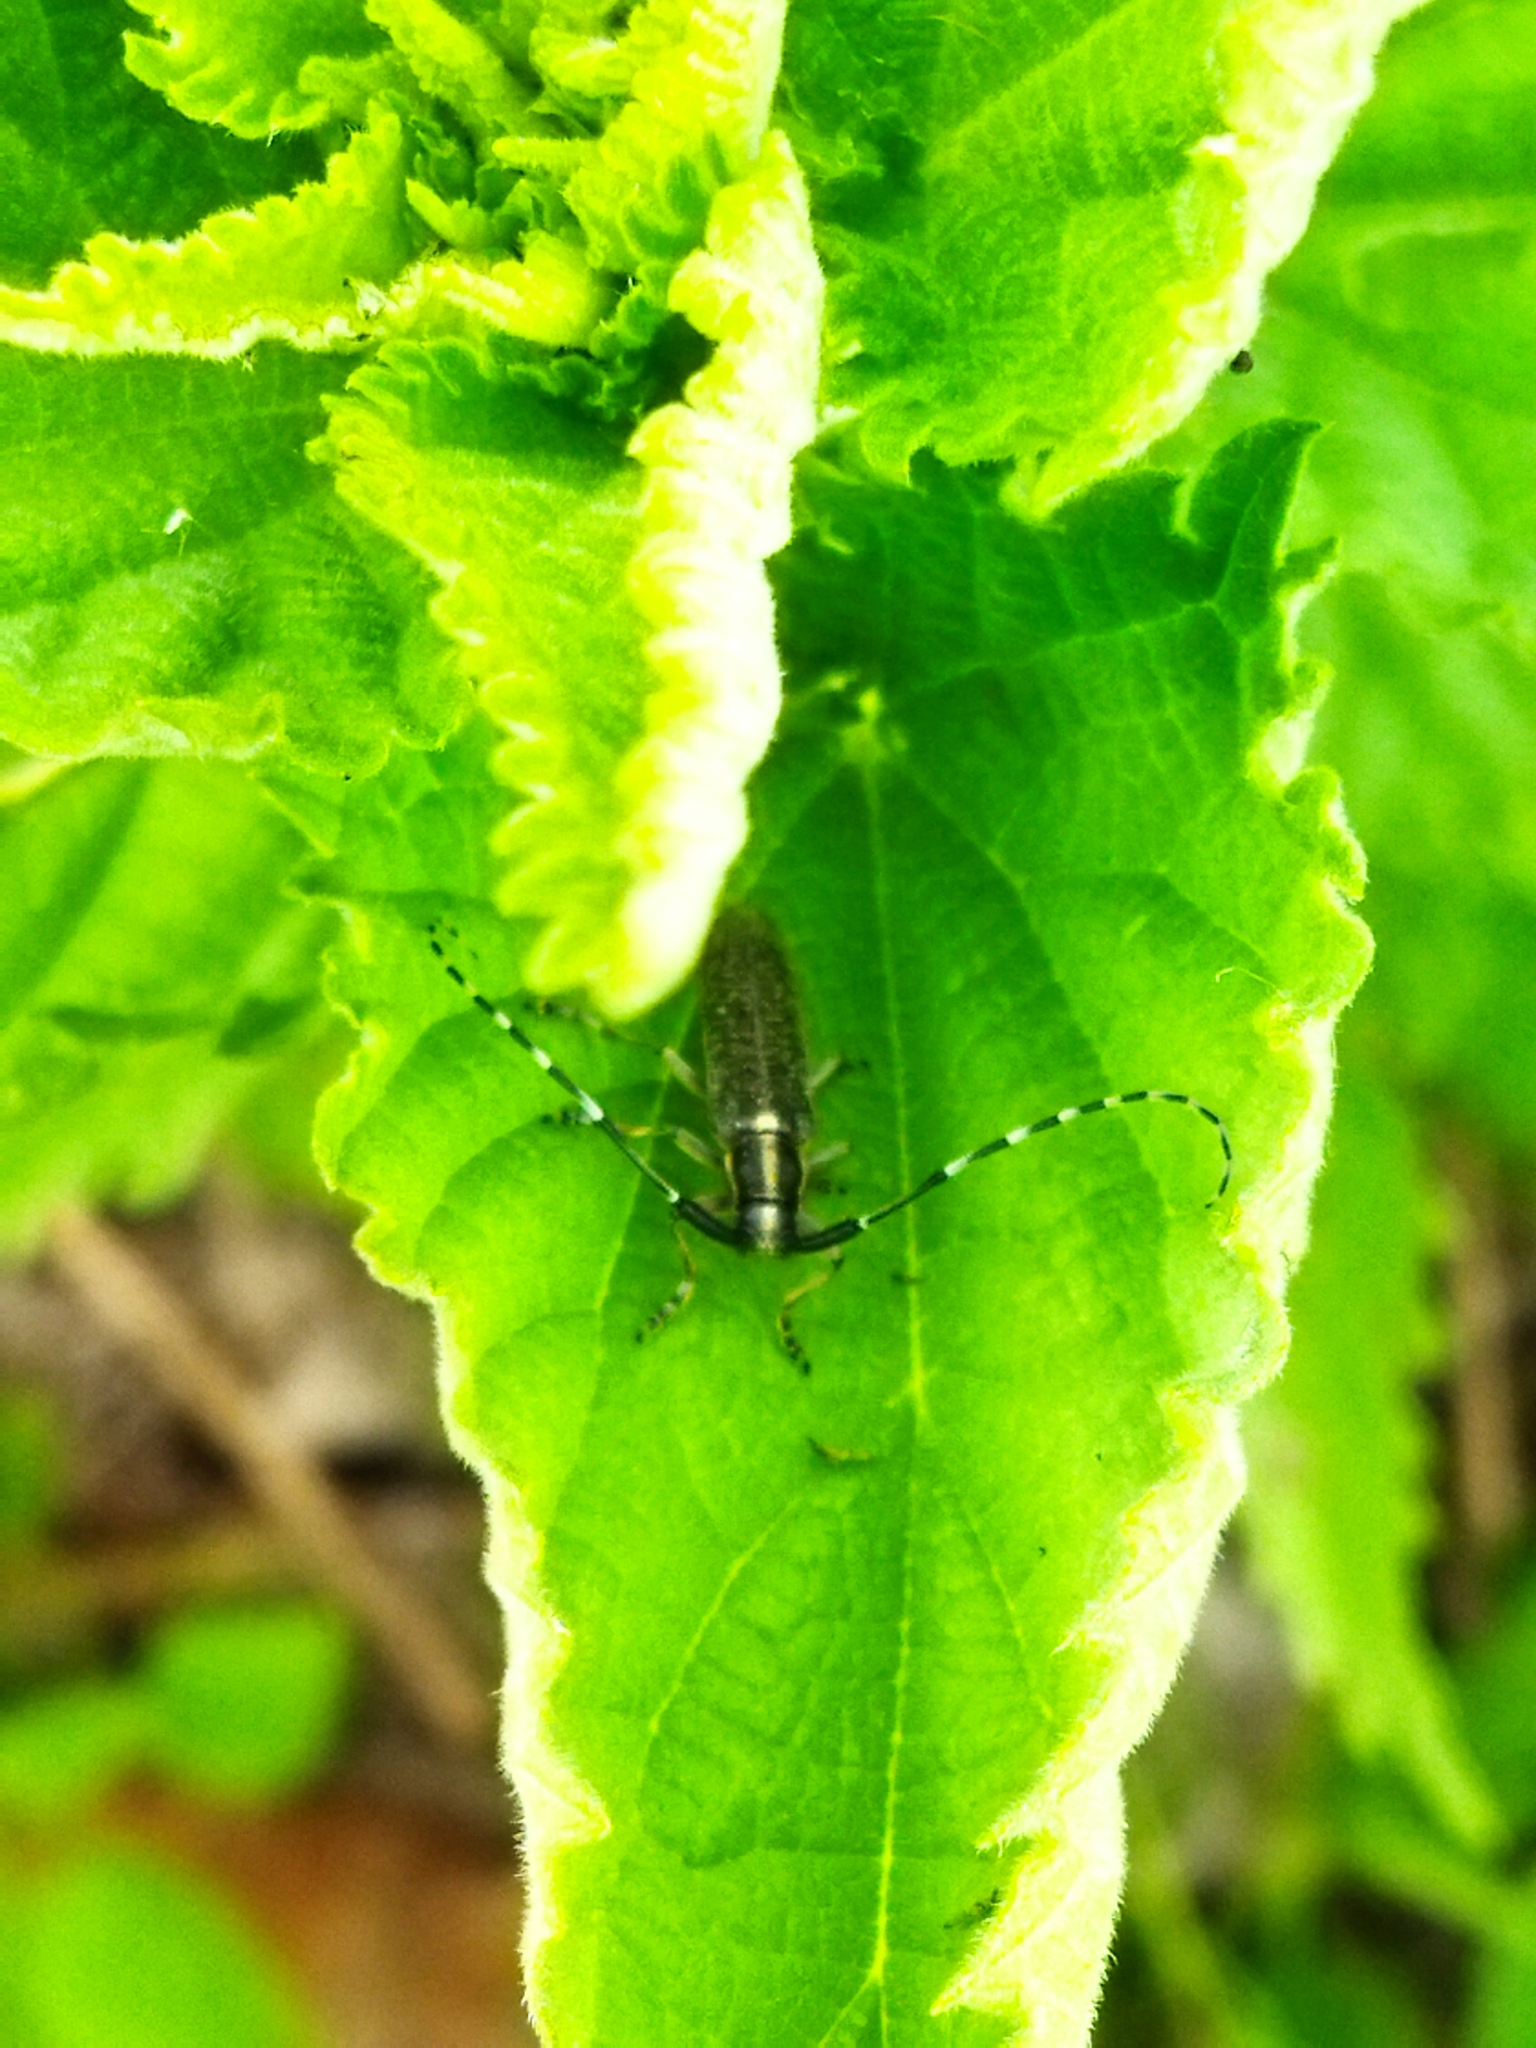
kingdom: Animalia
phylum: Arthropoda
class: Insecta
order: Coleoptera
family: Cerambycidae
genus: Agapanthia
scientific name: Agapanthia villosoviridescens
